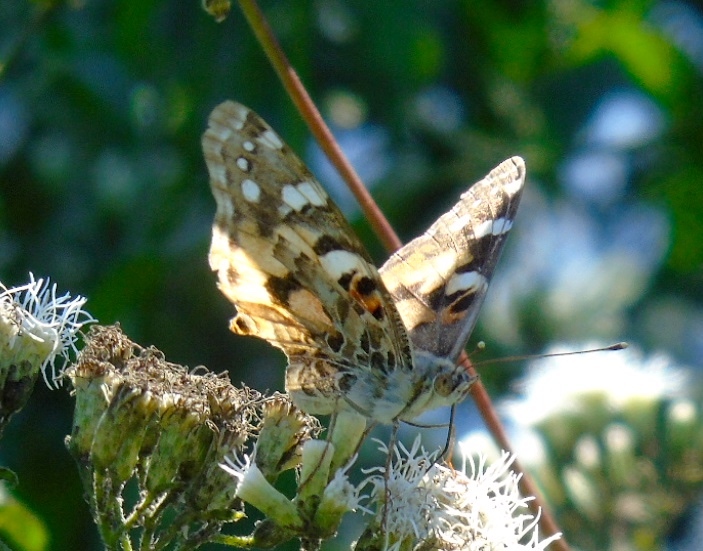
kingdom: Animalia
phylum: Arthropoda
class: Insecta
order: Lepidoptera
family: Nymphalidae
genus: Vanessa
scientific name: Vanessa cardui
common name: Painted lady
